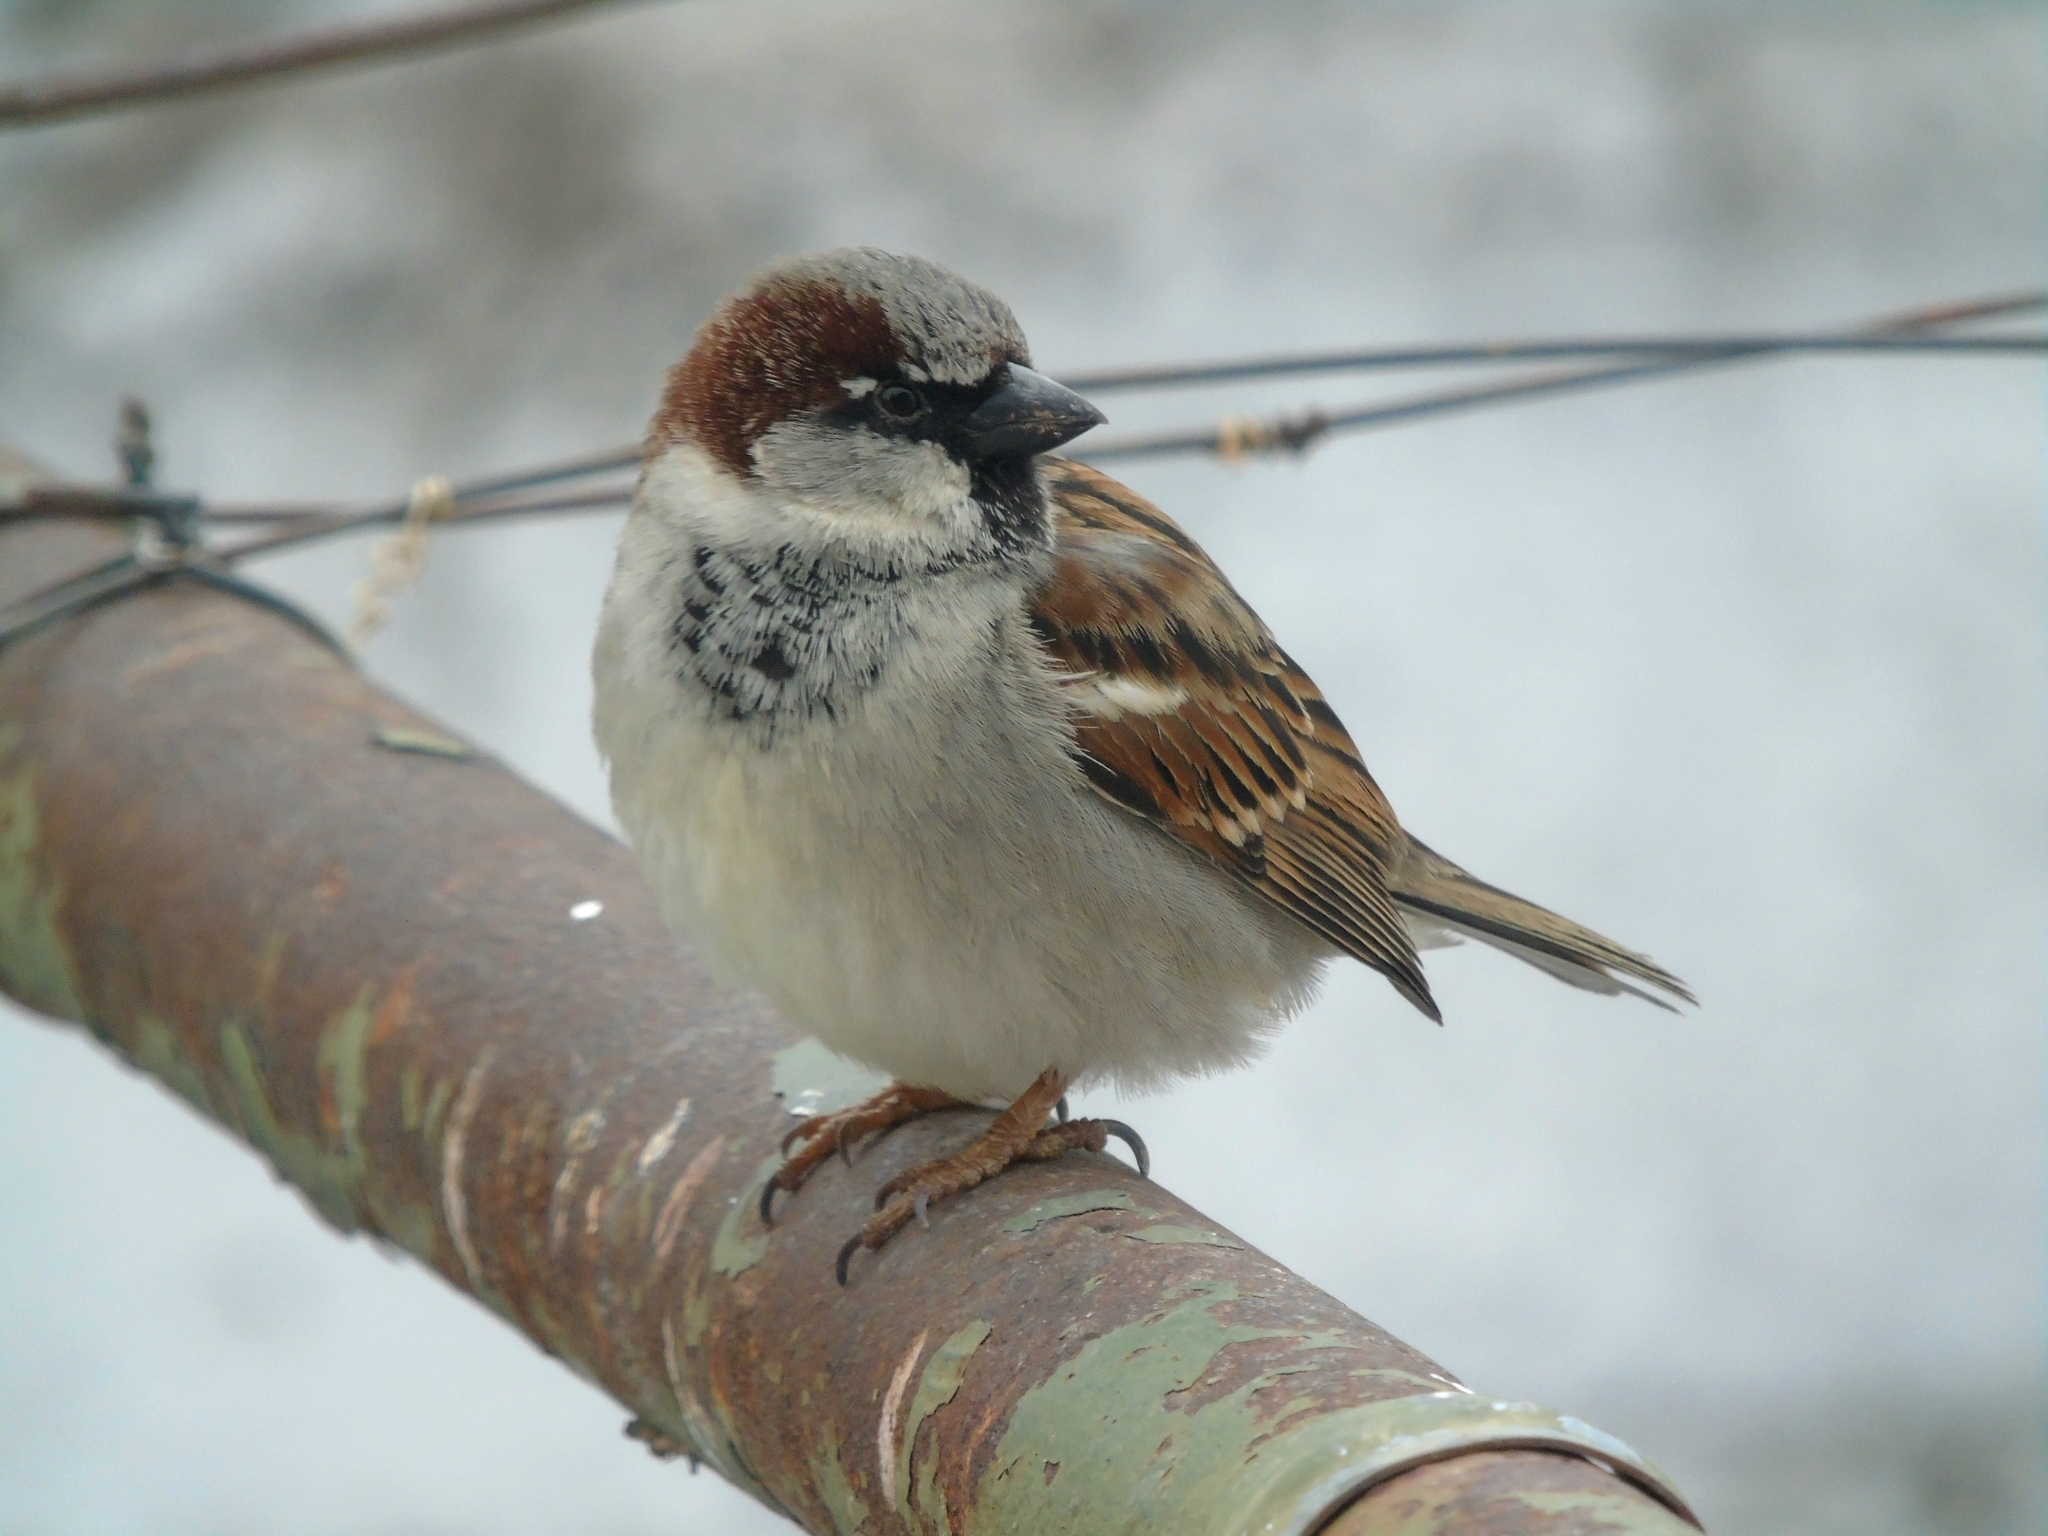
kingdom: Animalia
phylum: Chordata
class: Aves
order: Passeriformes
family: Passeridae
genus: Passer
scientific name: Passer domesticus
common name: House sparrow
